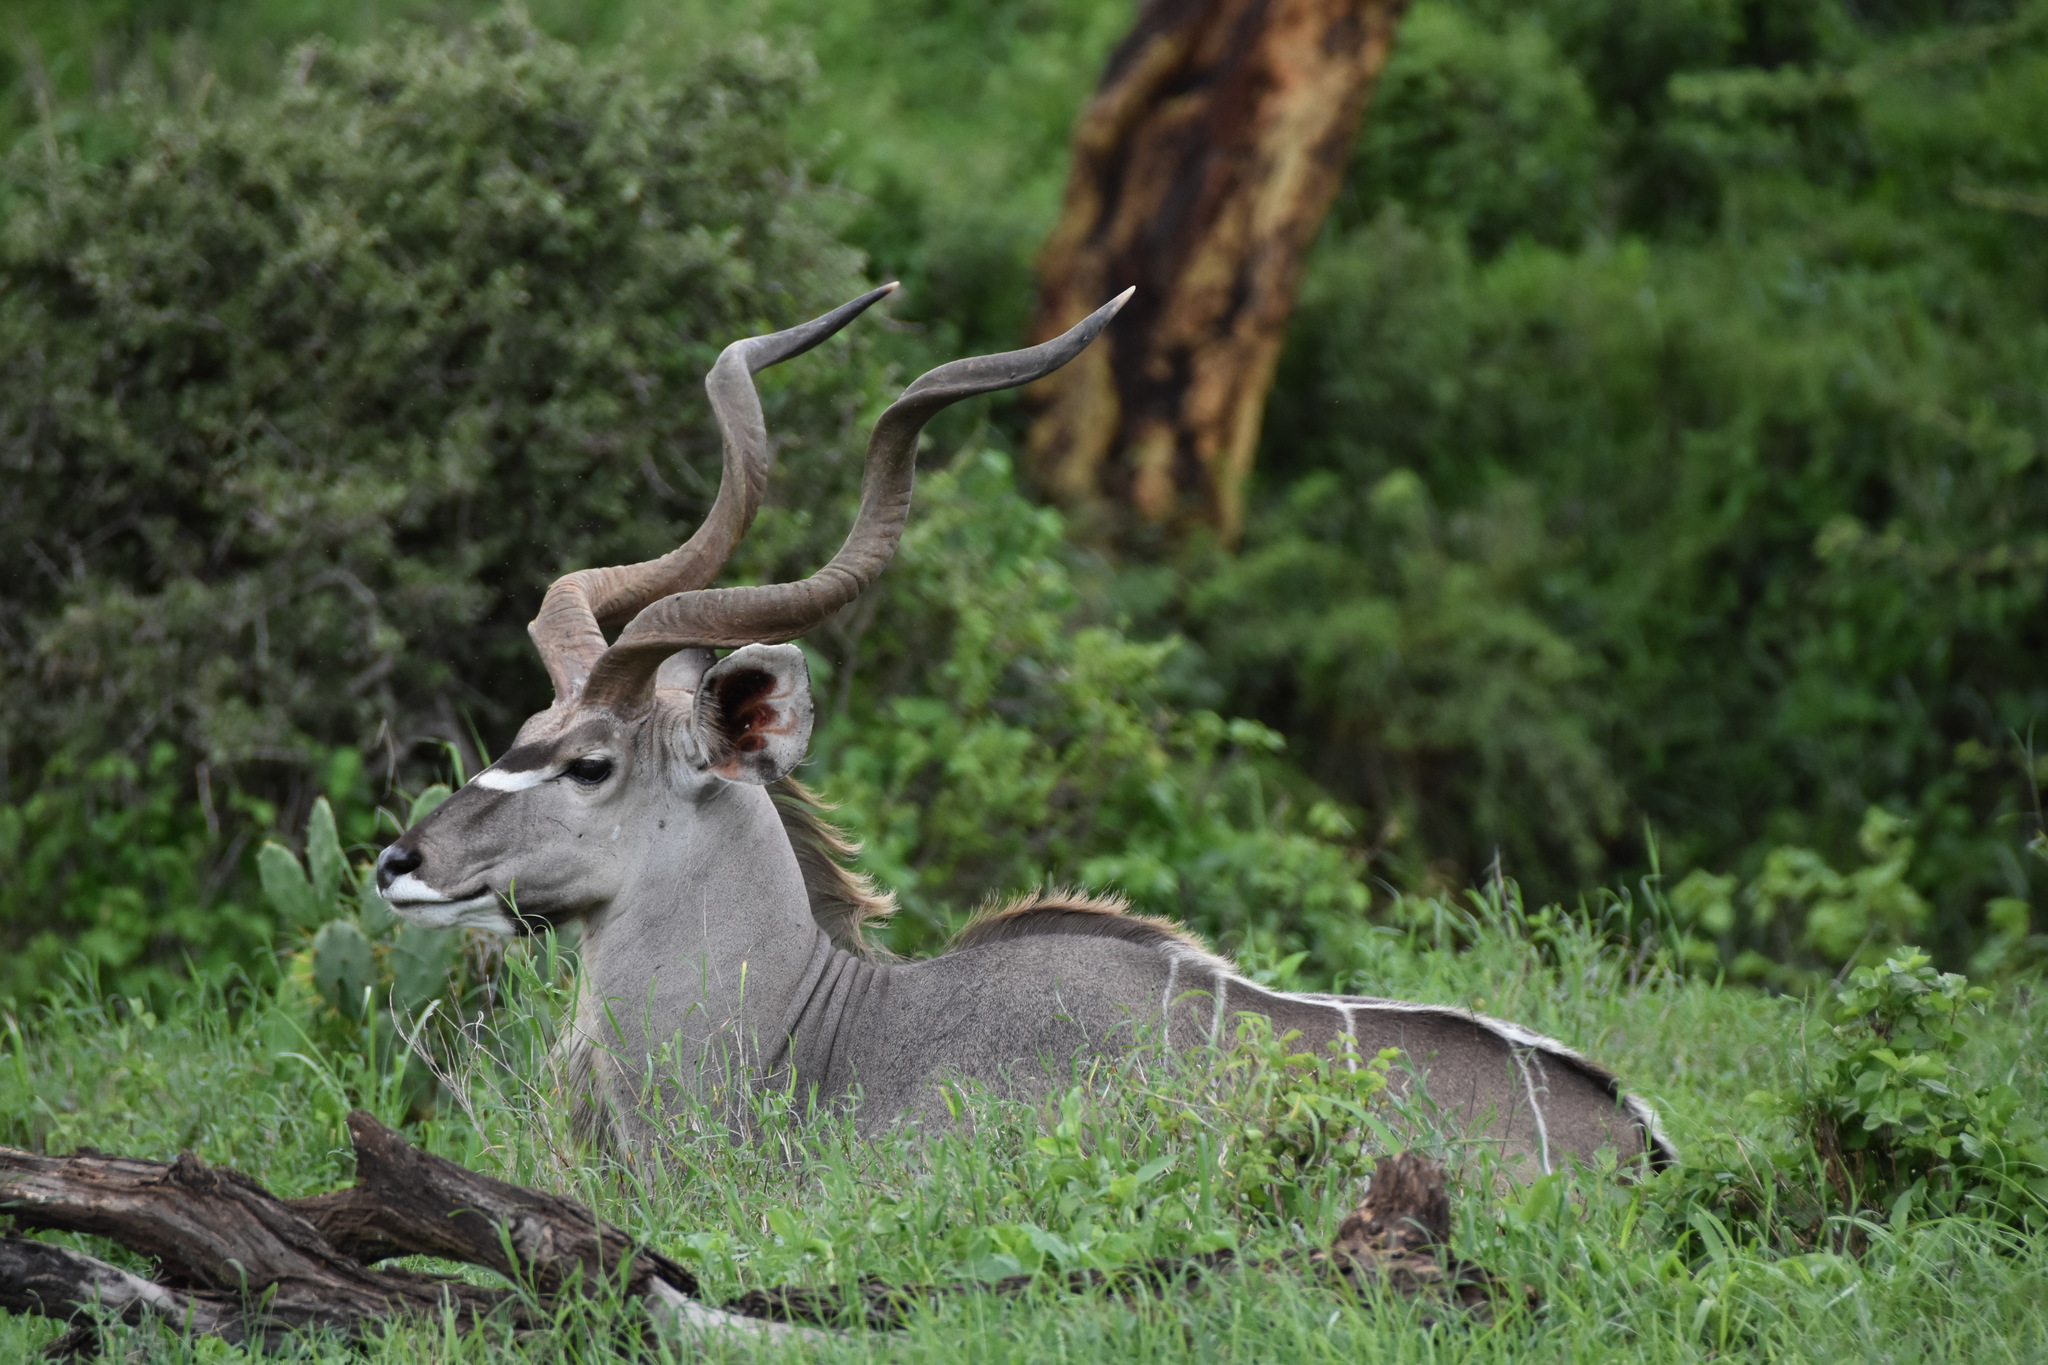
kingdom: Animalia
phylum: Chordata
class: Mammalia
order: Artiodactyla
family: Bovidae
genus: Tragelaphus
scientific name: Tragelaphus strepsiceros
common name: Greater kudu
